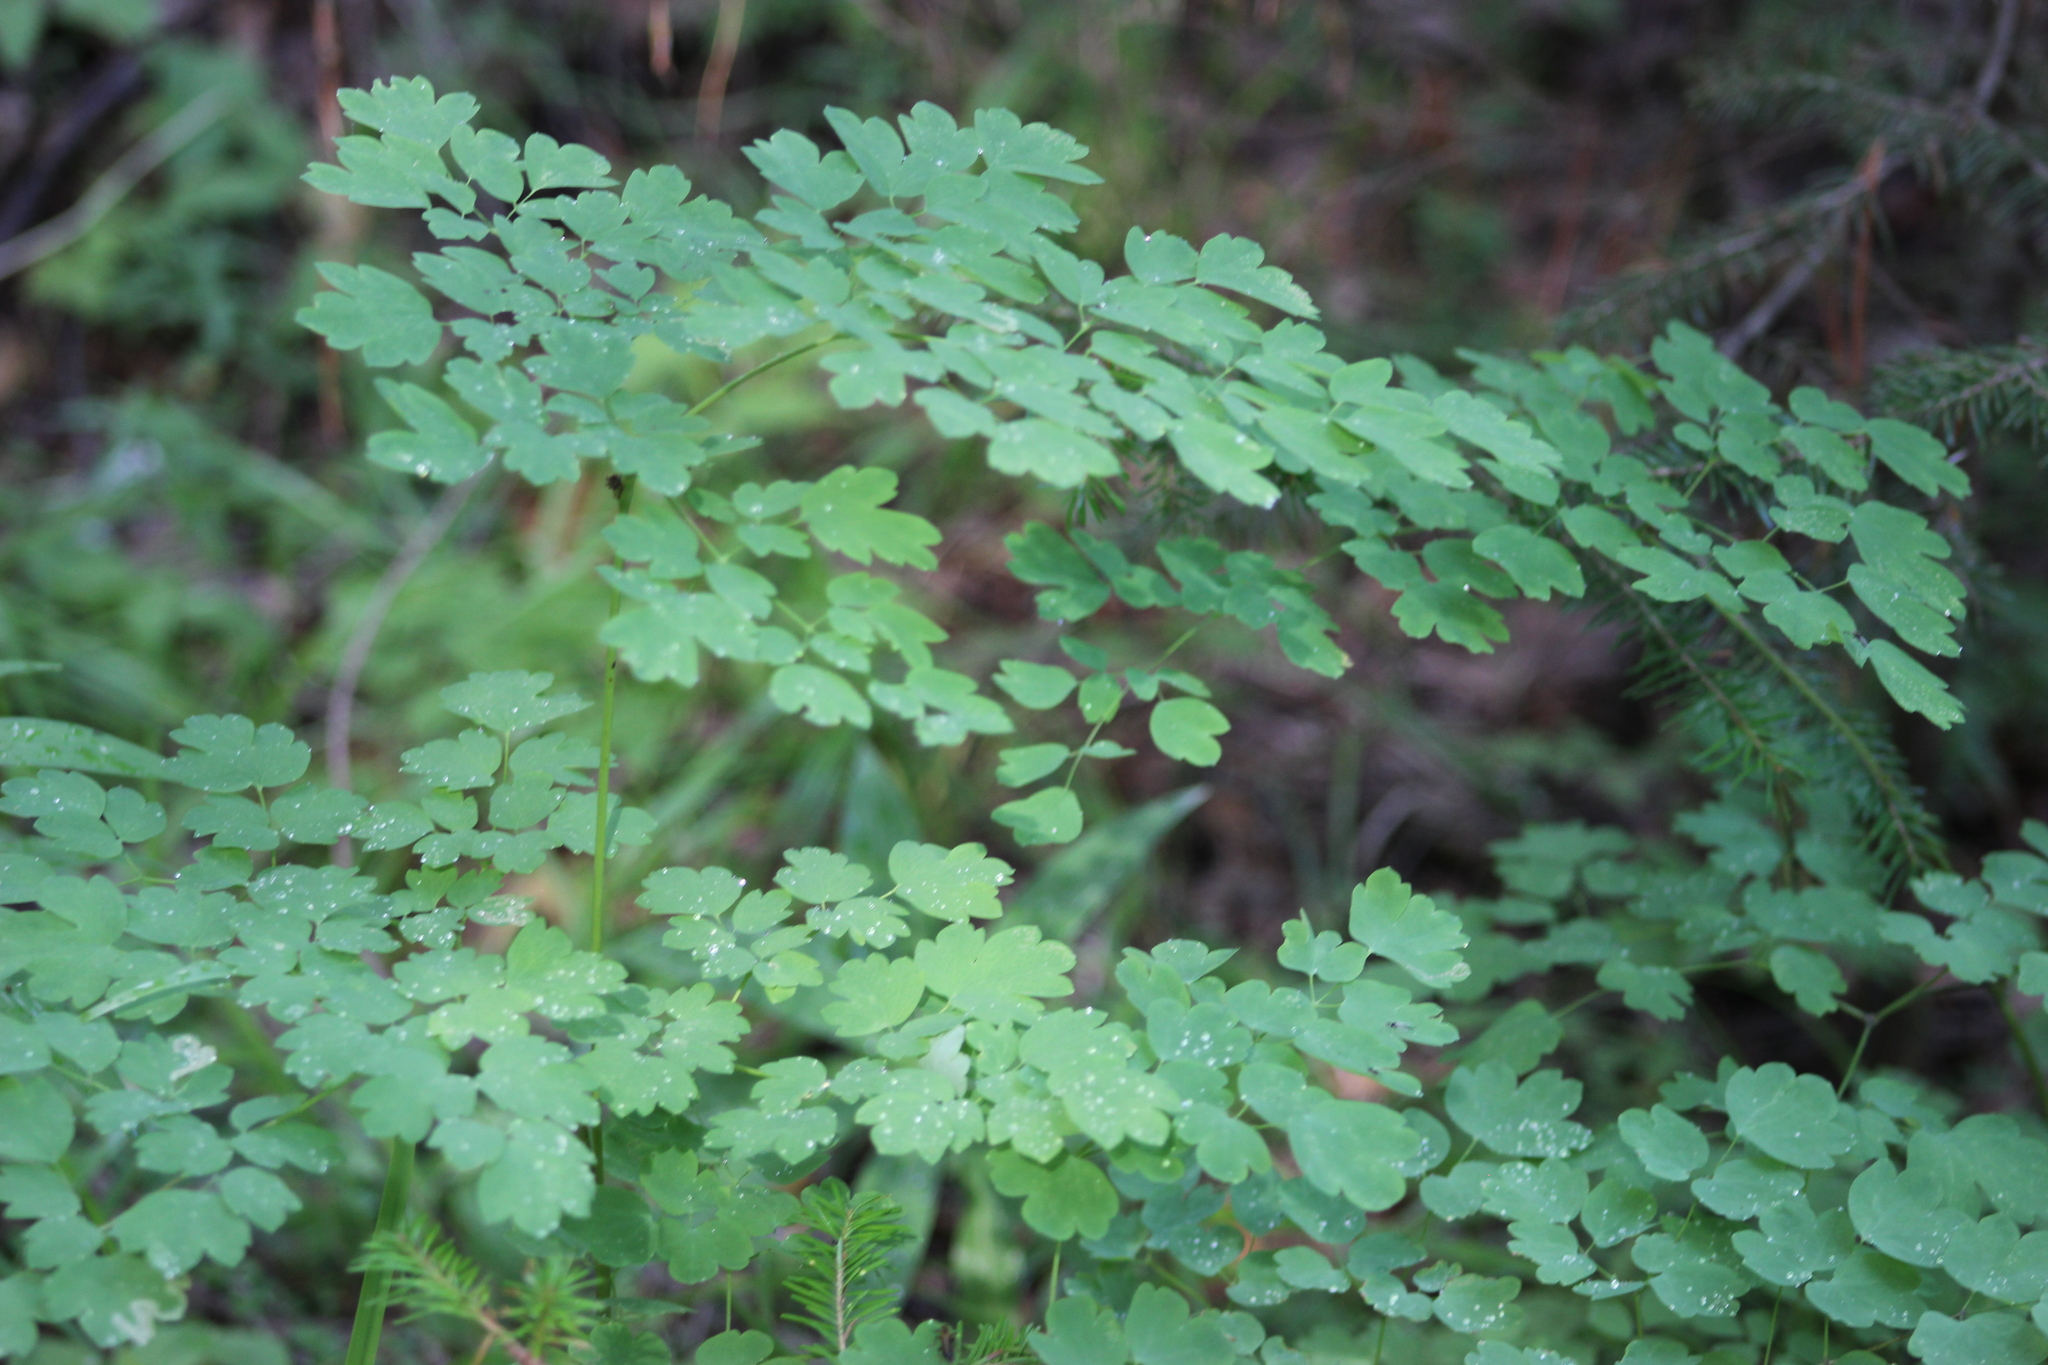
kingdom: Plantae
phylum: Tracheophyta
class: Magnoliopsida
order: Ranunculales
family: Ranunculaceae
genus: Thalictrum
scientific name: Thalictrum minus
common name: Lesser meadow-rue
